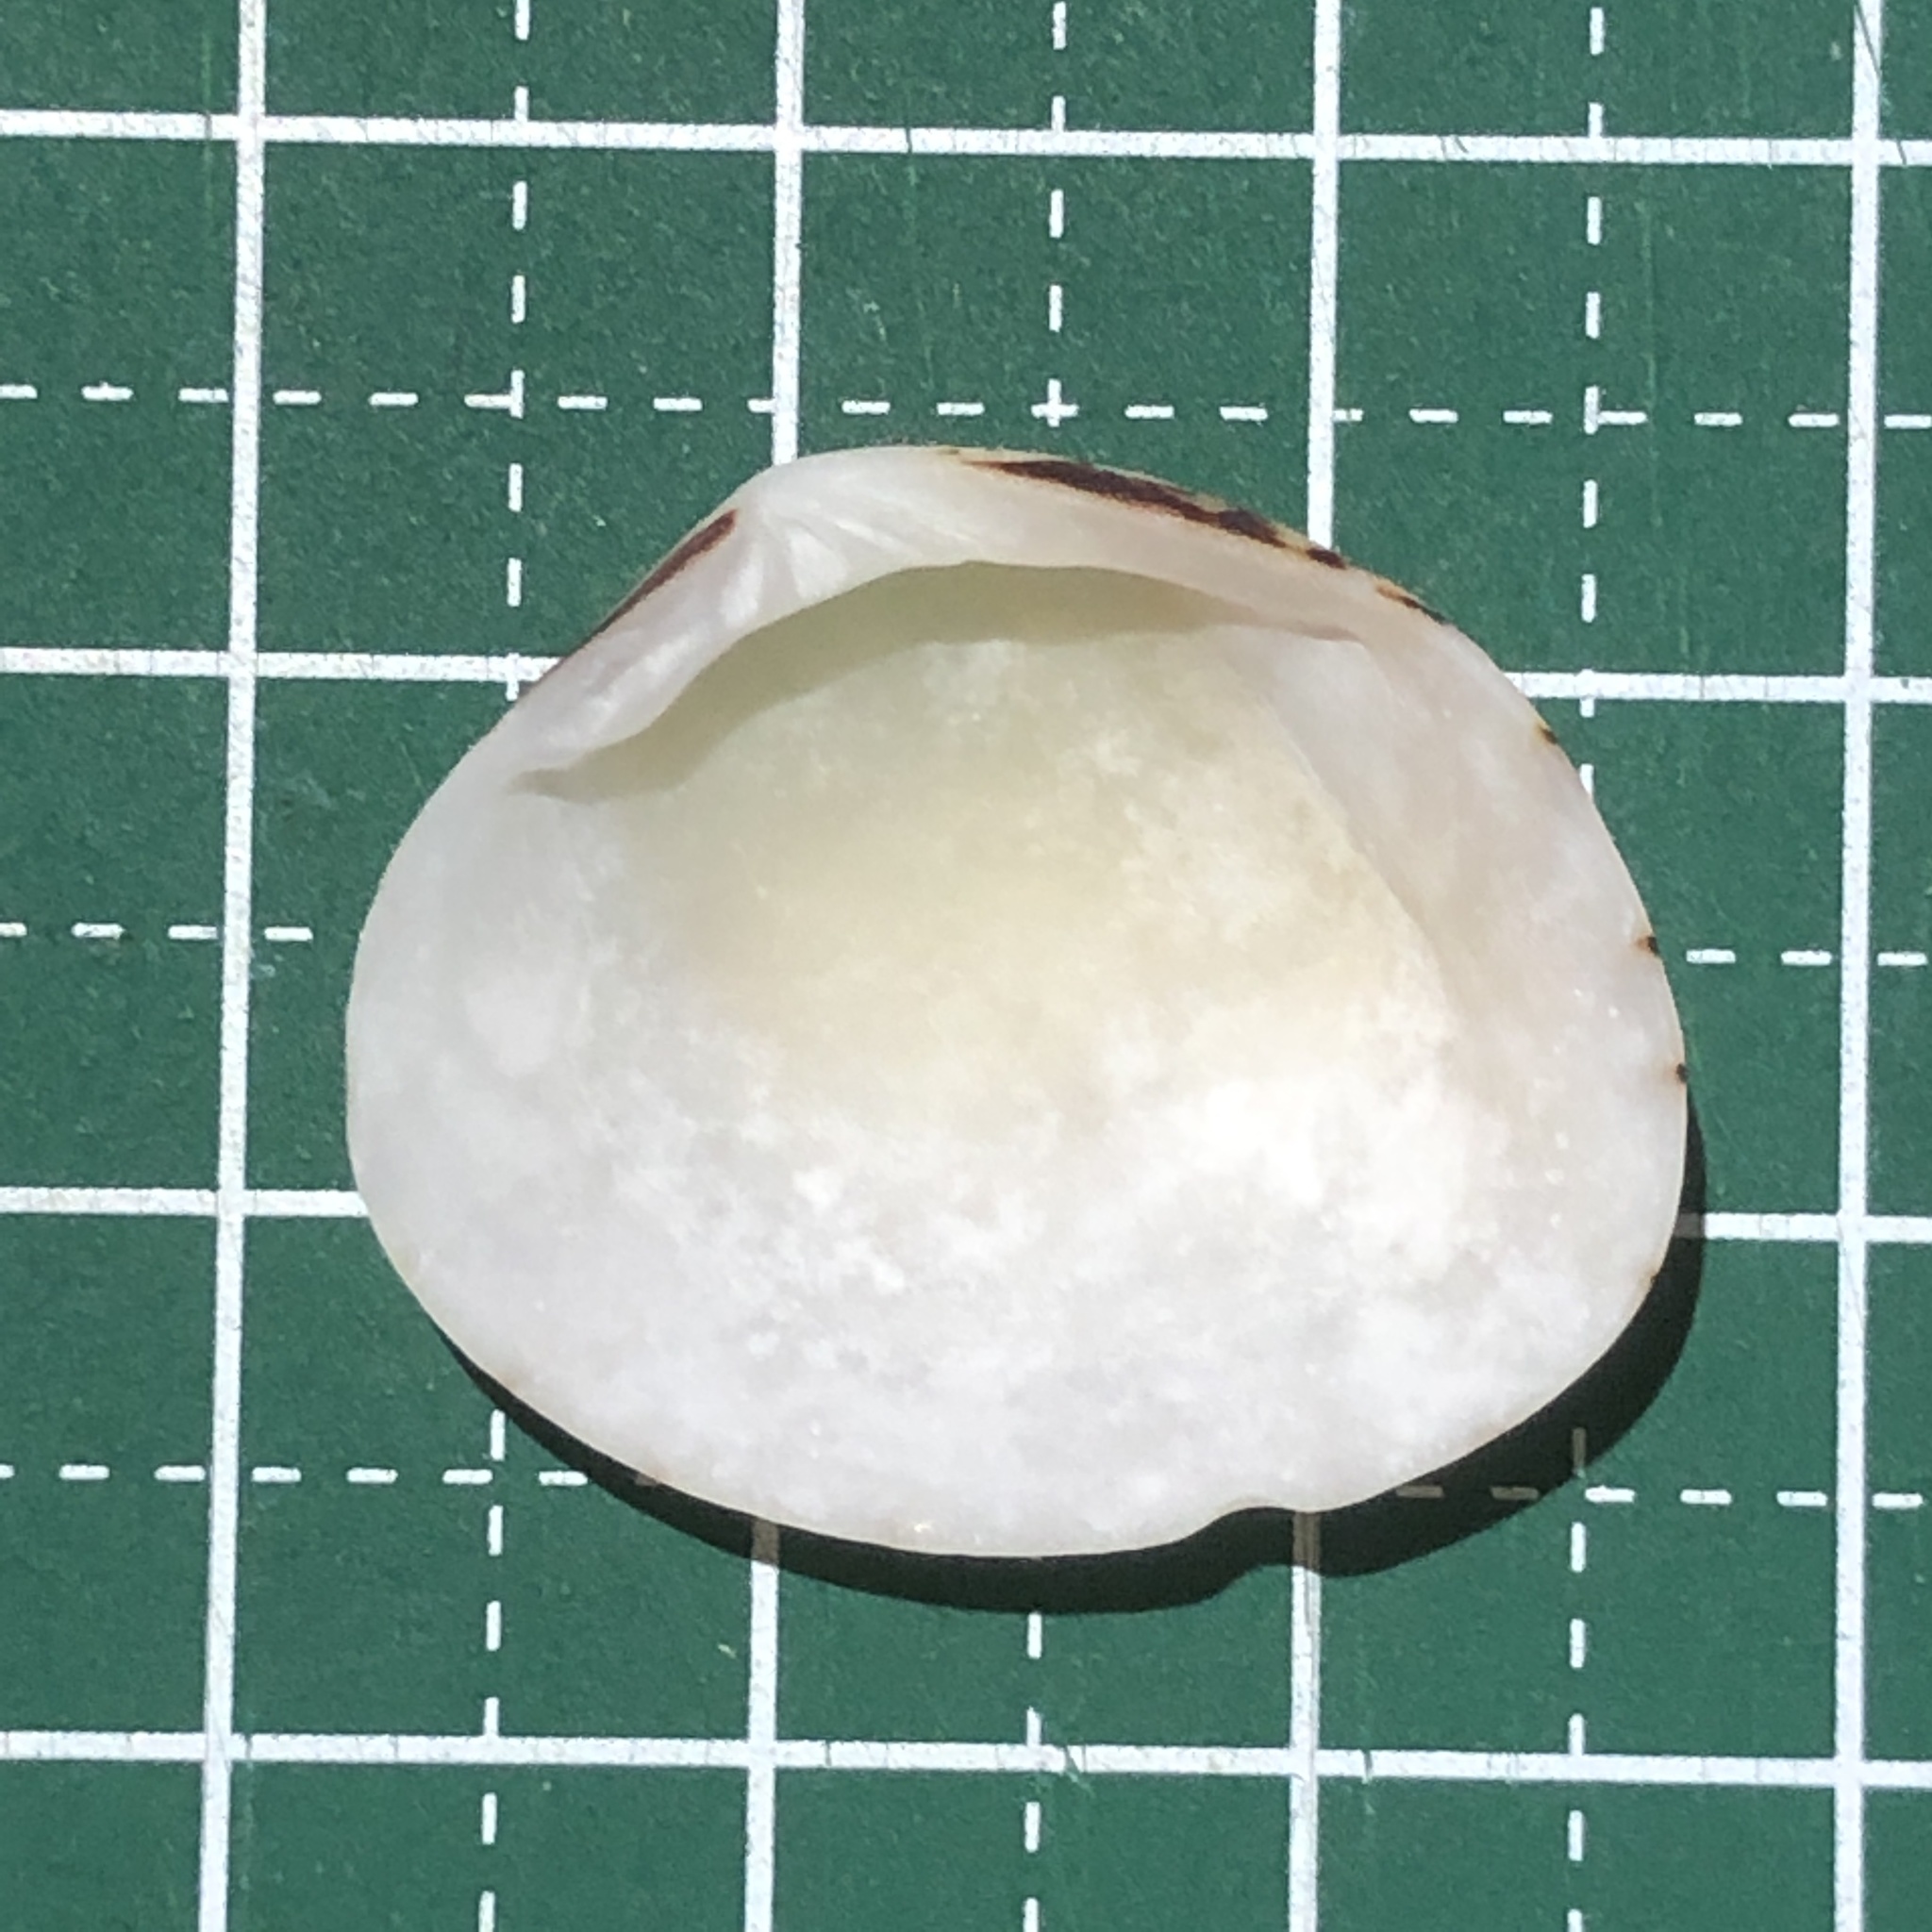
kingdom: Animalia
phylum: Mollusca
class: Bivalvia
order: Venerida
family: Veneridae
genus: Gafrarium
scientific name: Gafrarium dispar
